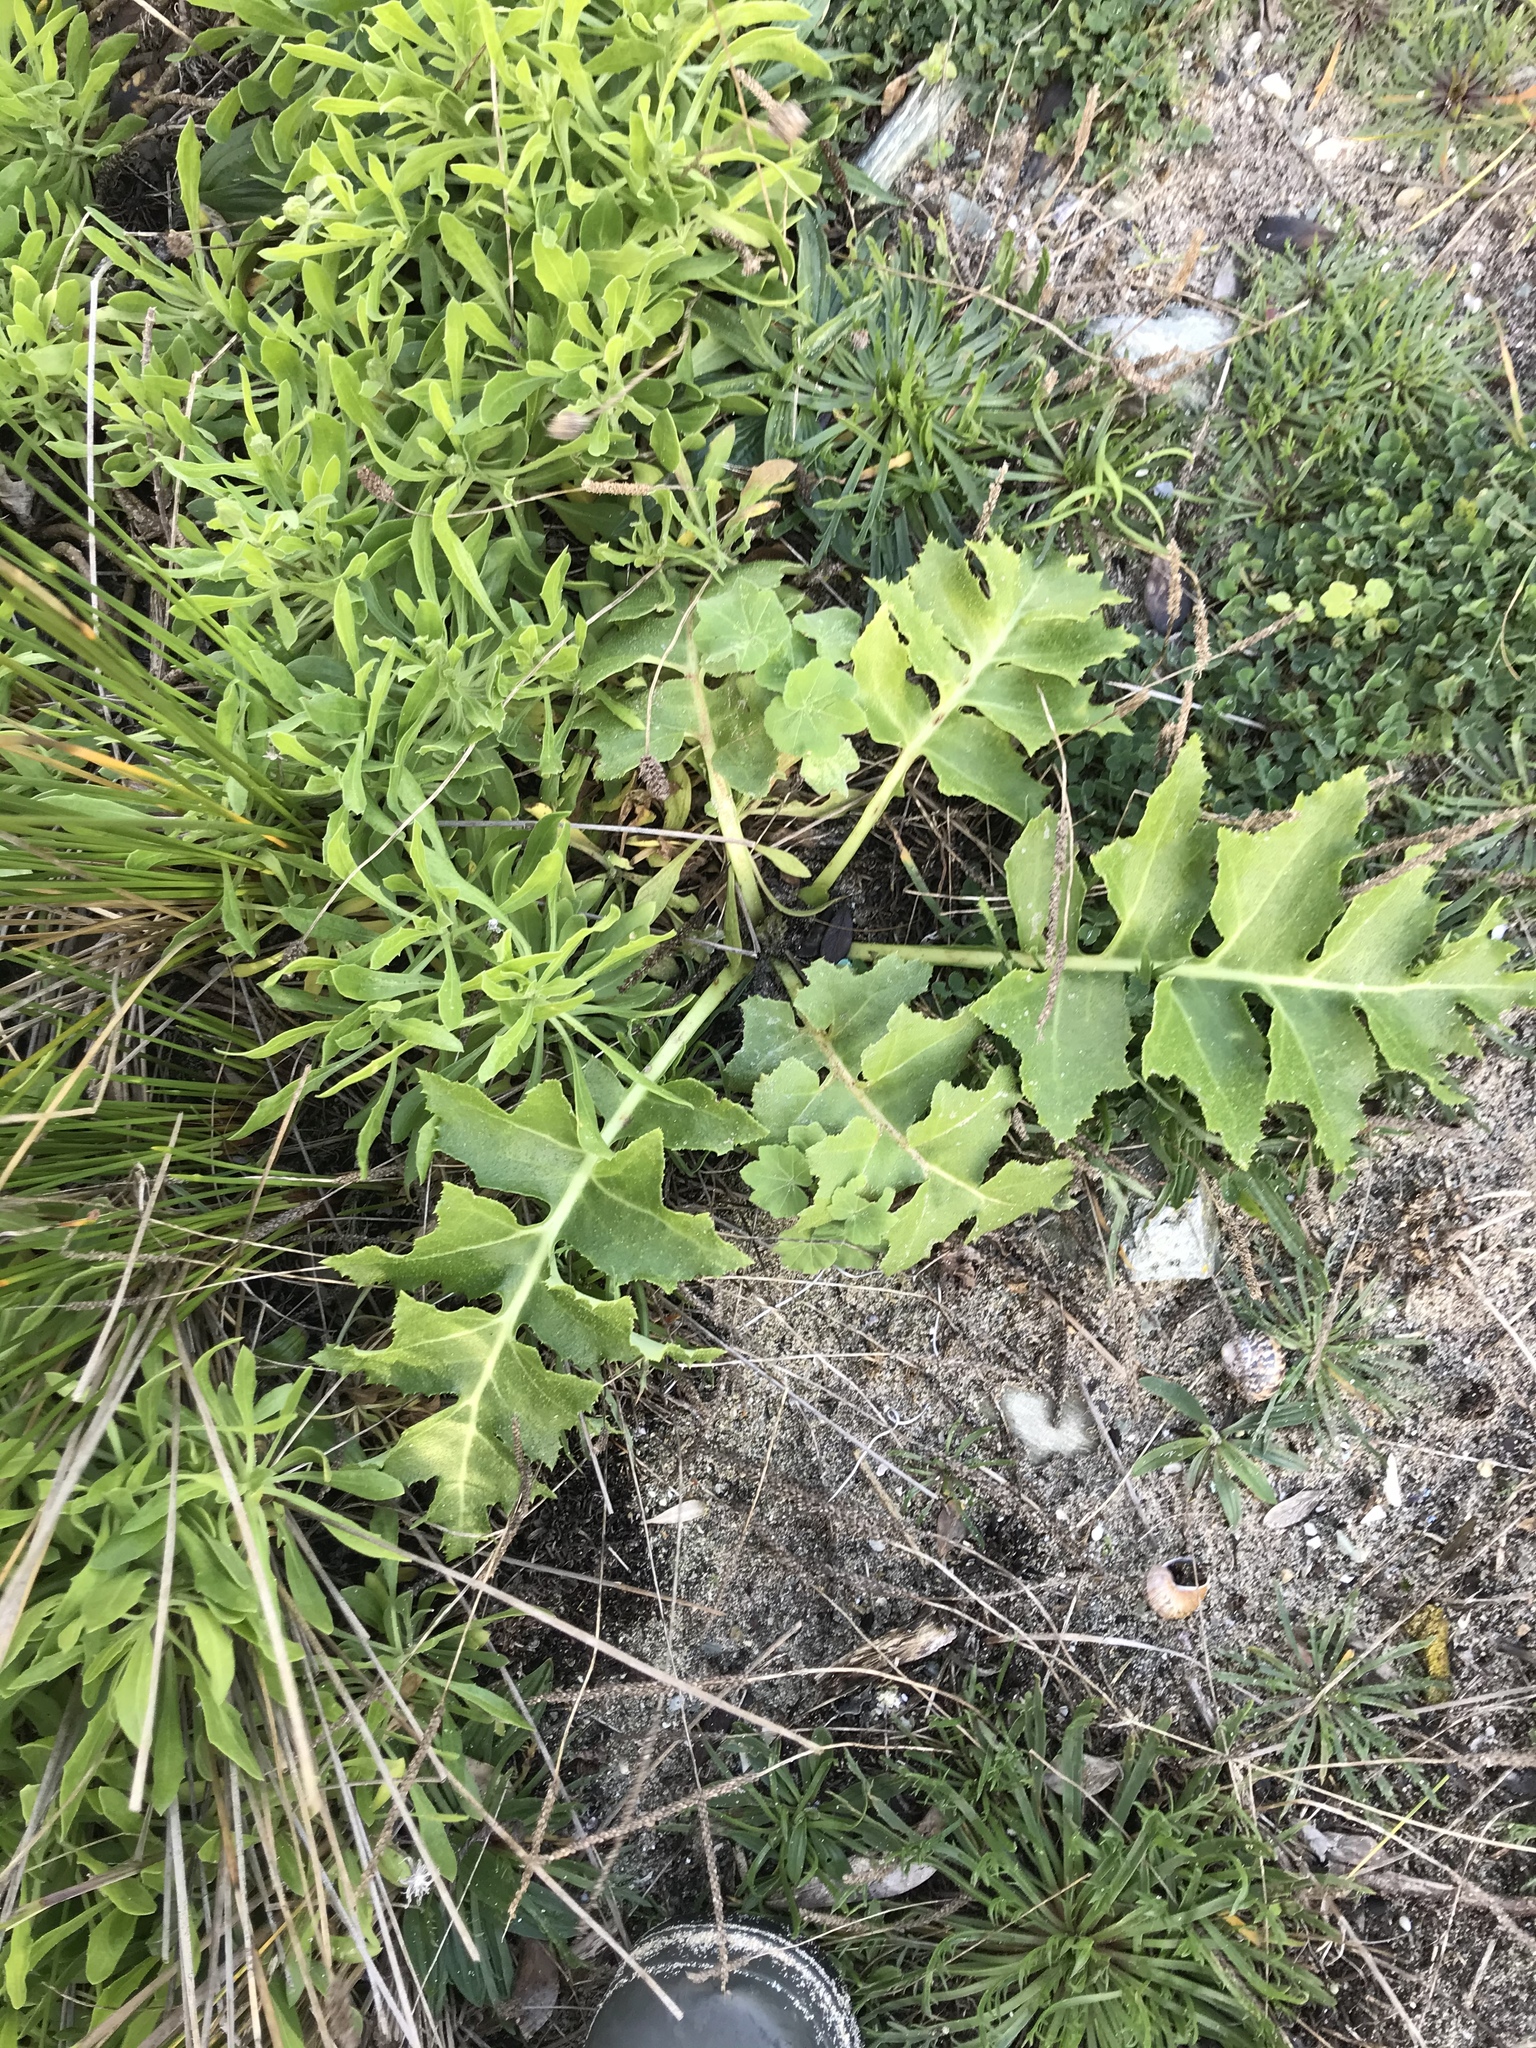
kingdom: Plantae
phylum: Tracheophyta
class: Magnoliopsida
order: Asterales
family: Asteraceae
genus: Sonchus
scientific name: Sonchus grandifolius
